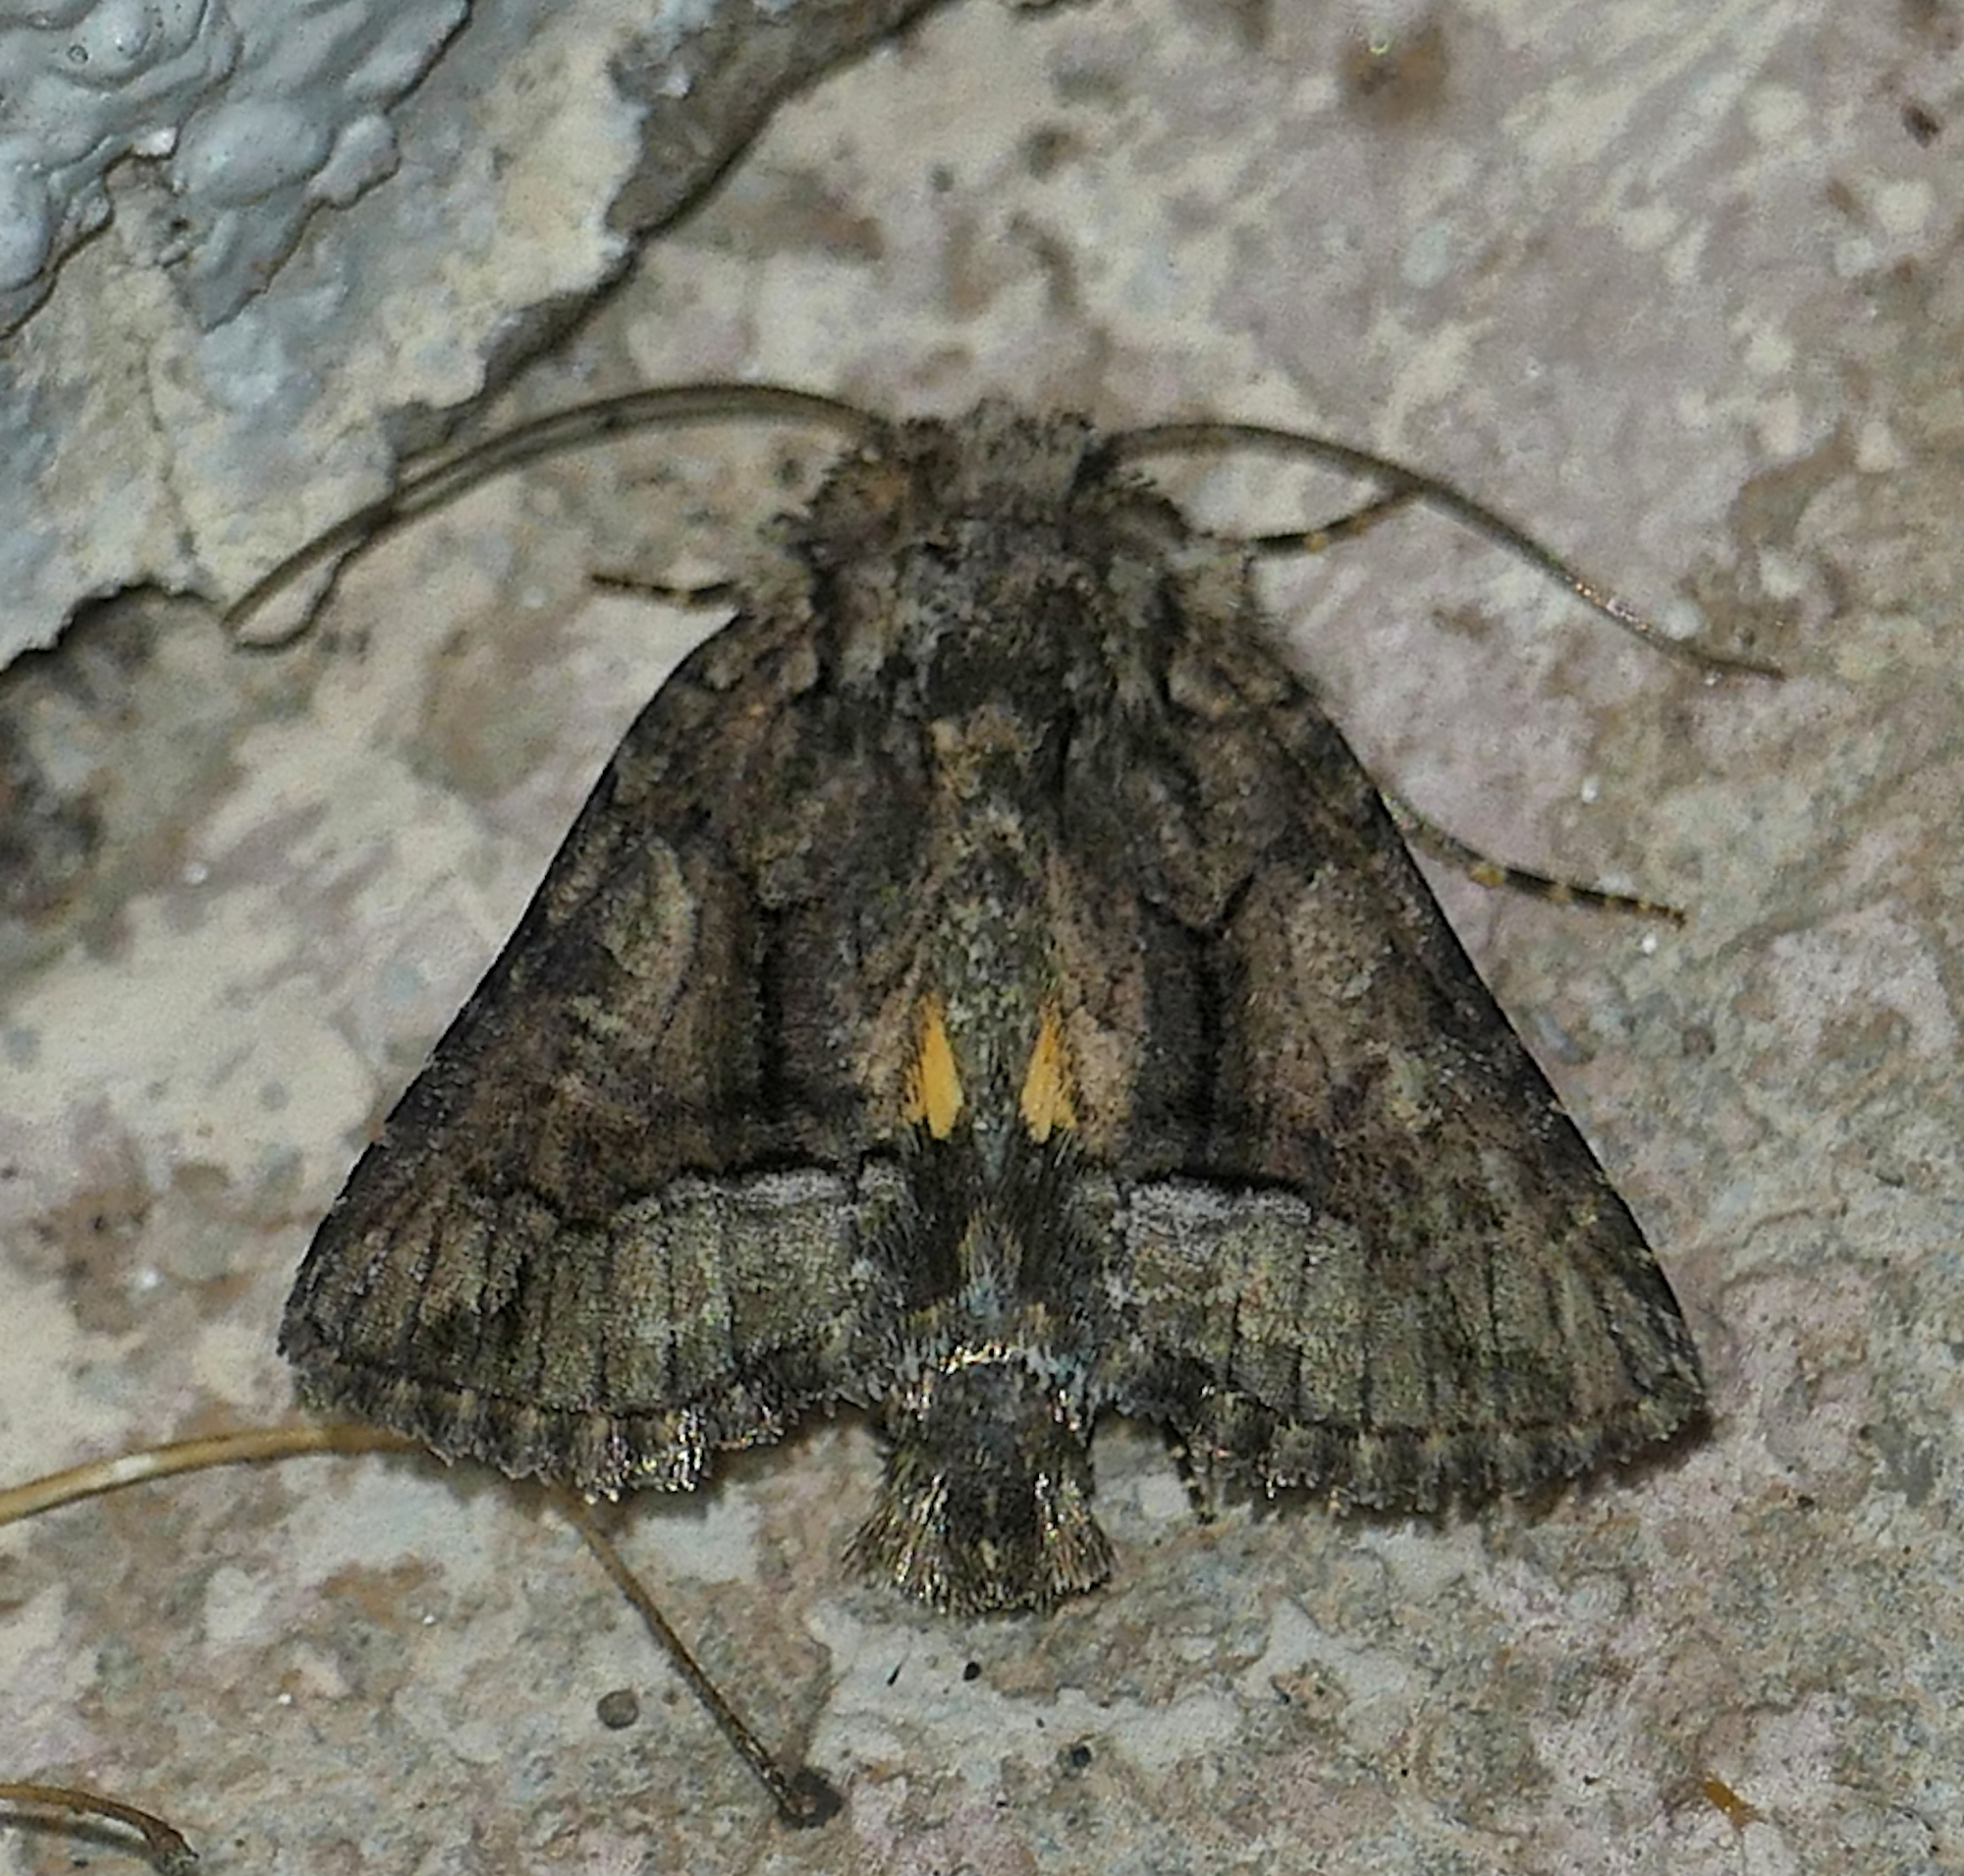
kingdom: Animalia
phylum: Arthropoda
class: Insecta
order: Lepidoptera
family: Noctuidae
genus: Pseudanarta
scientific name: Pseudanarta singula
